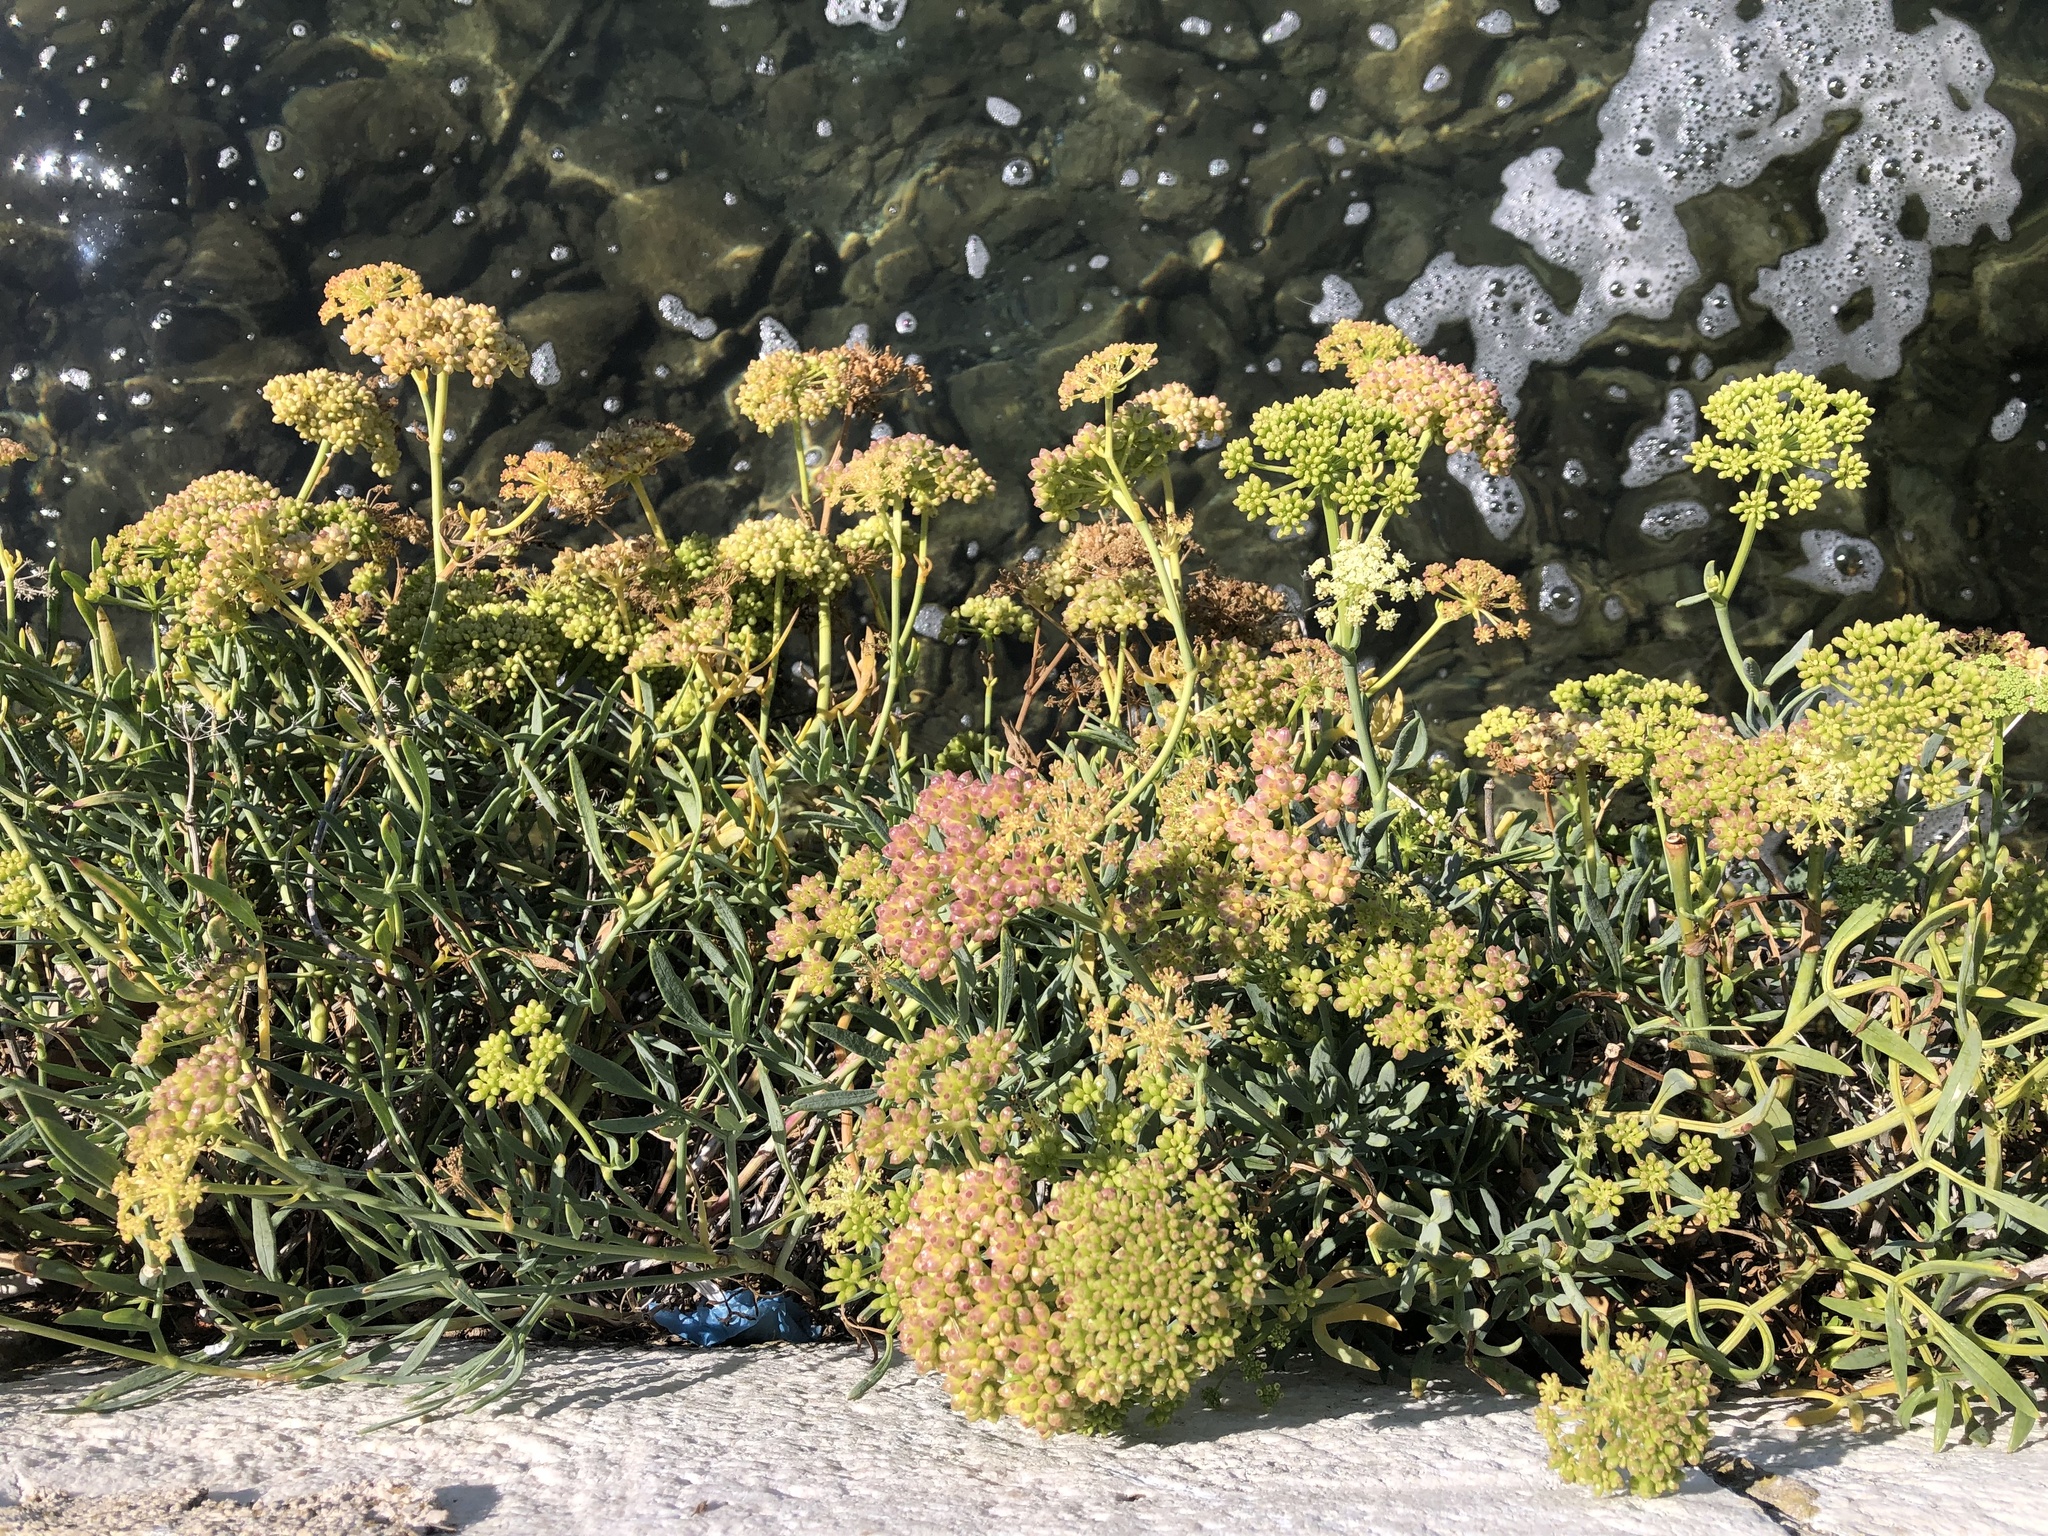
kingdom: Plantae
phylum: Tracheophyta
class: Magnoliopsida
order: Apiales
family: Apiaceae
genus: Crithmum
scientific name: Crithmum maritimum
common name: Rock samphire
